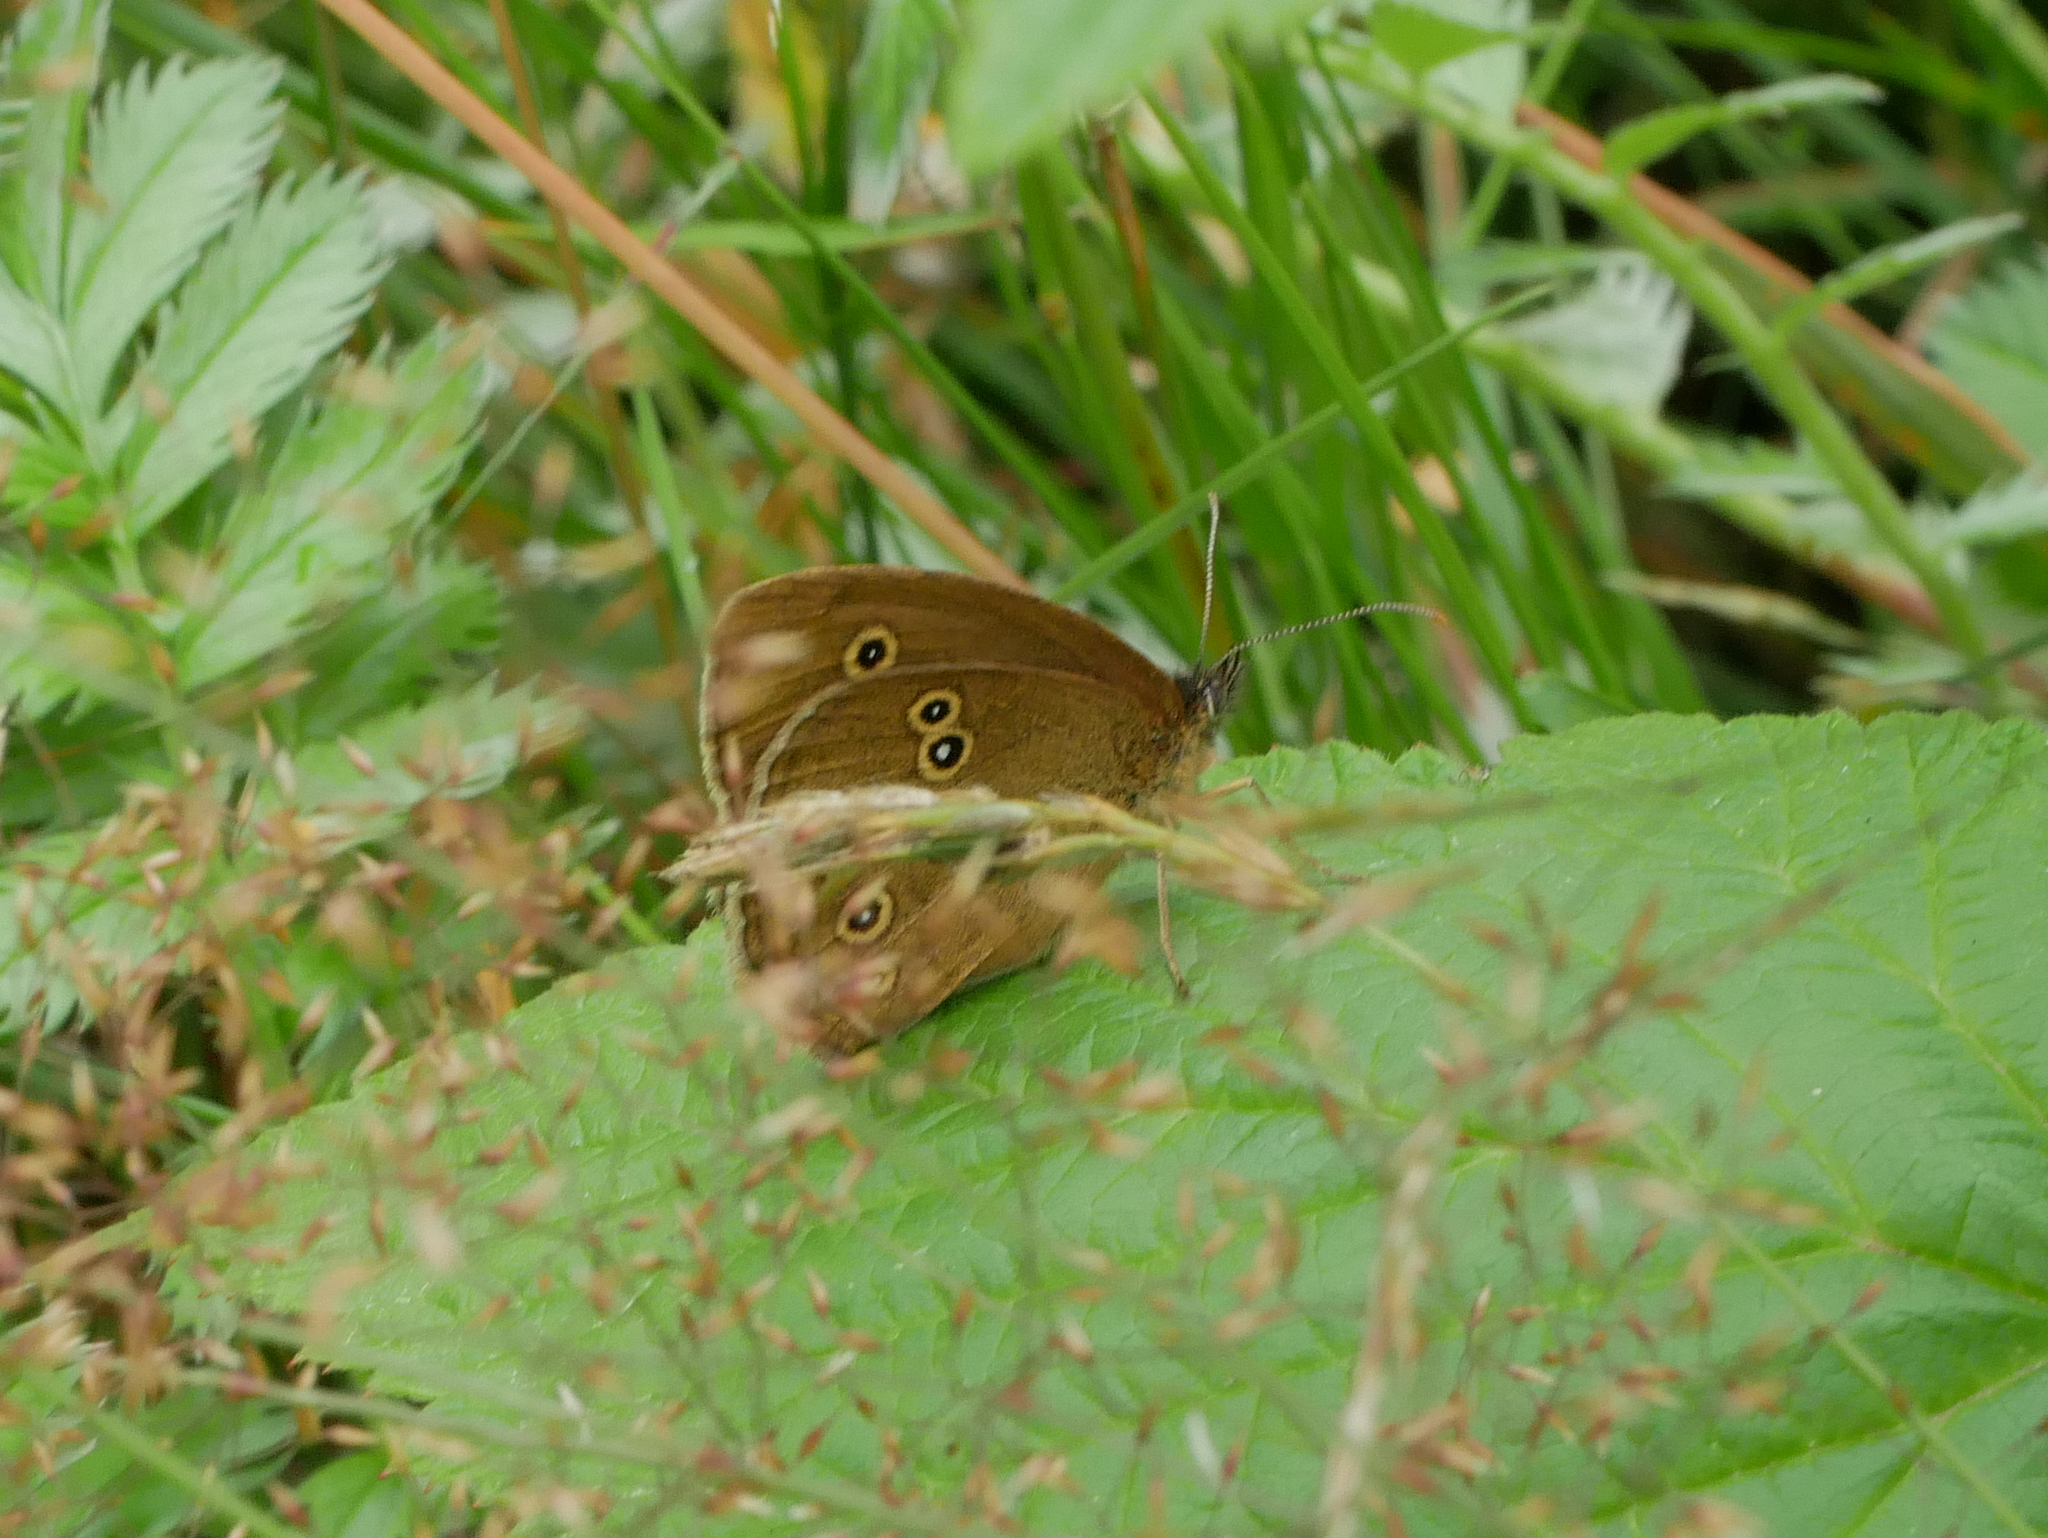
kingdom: Animalia
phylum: Arthropoda
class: Insecta
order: Lepidoptera
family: Nymphalidae
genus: Aphantopus
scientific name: Aphantopus hyperantus
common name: Ringlet
